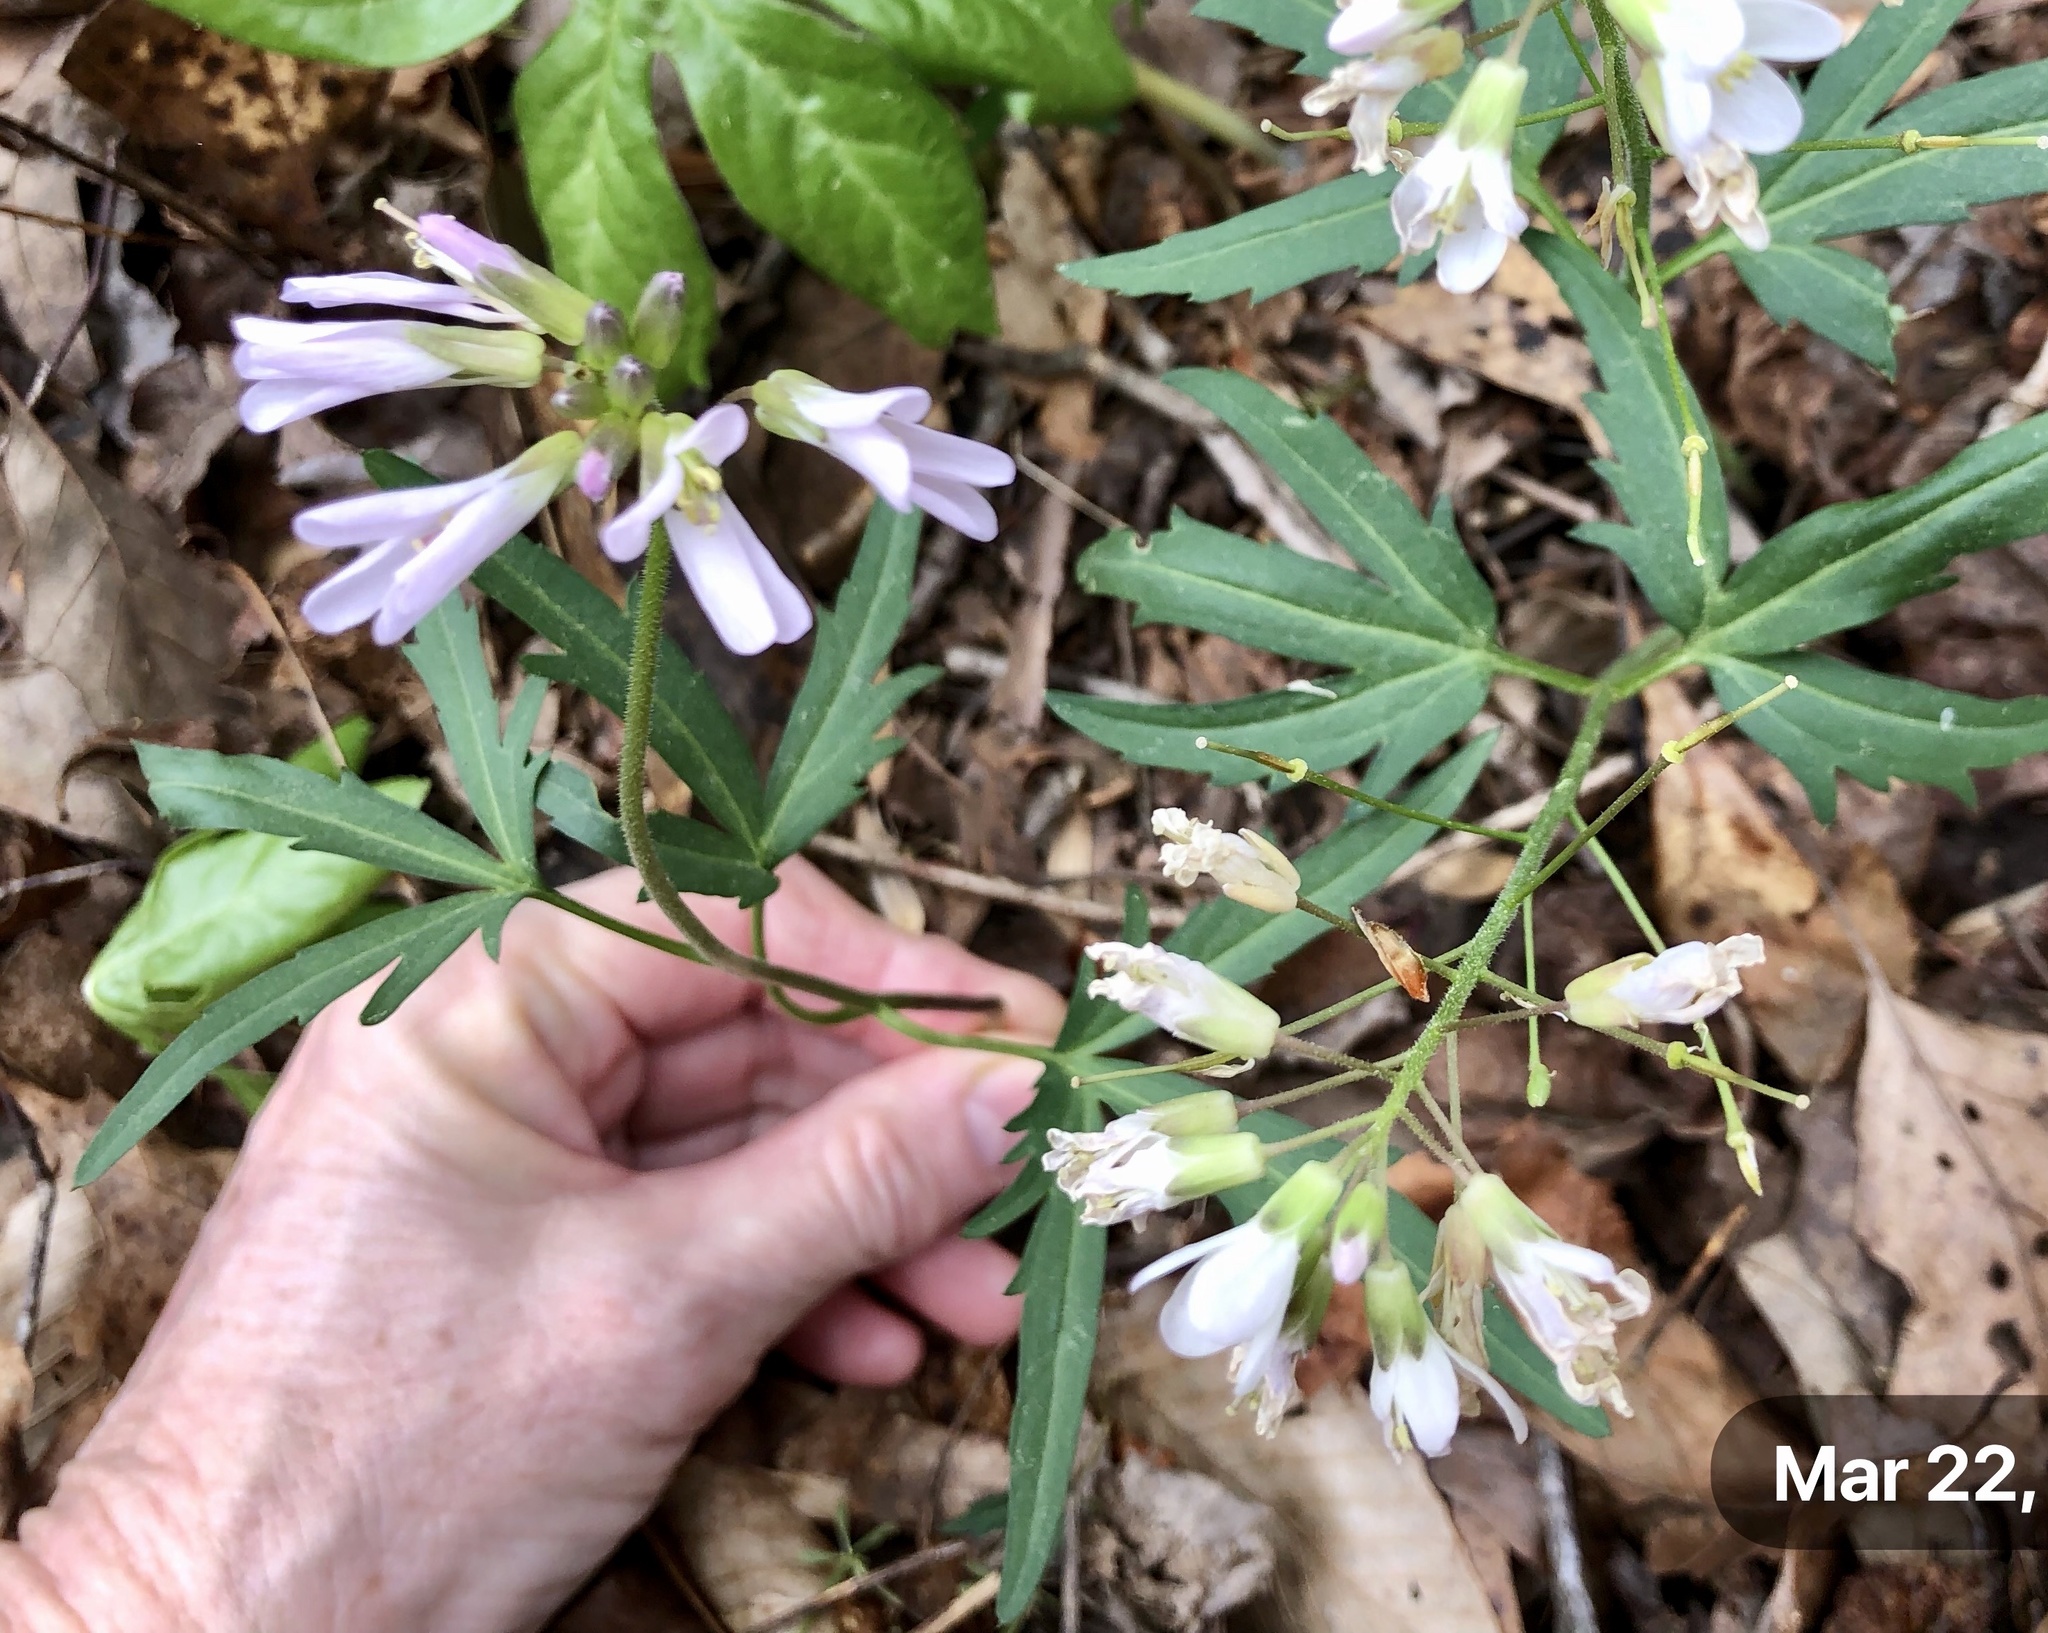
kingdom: Plantae
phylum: Tracheophyta
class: Magnoliopsida
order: Brassicales
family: Brassicaceae
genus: Cardamine
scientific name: Cardamine concatenata
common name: Cut-leaf toothcup
